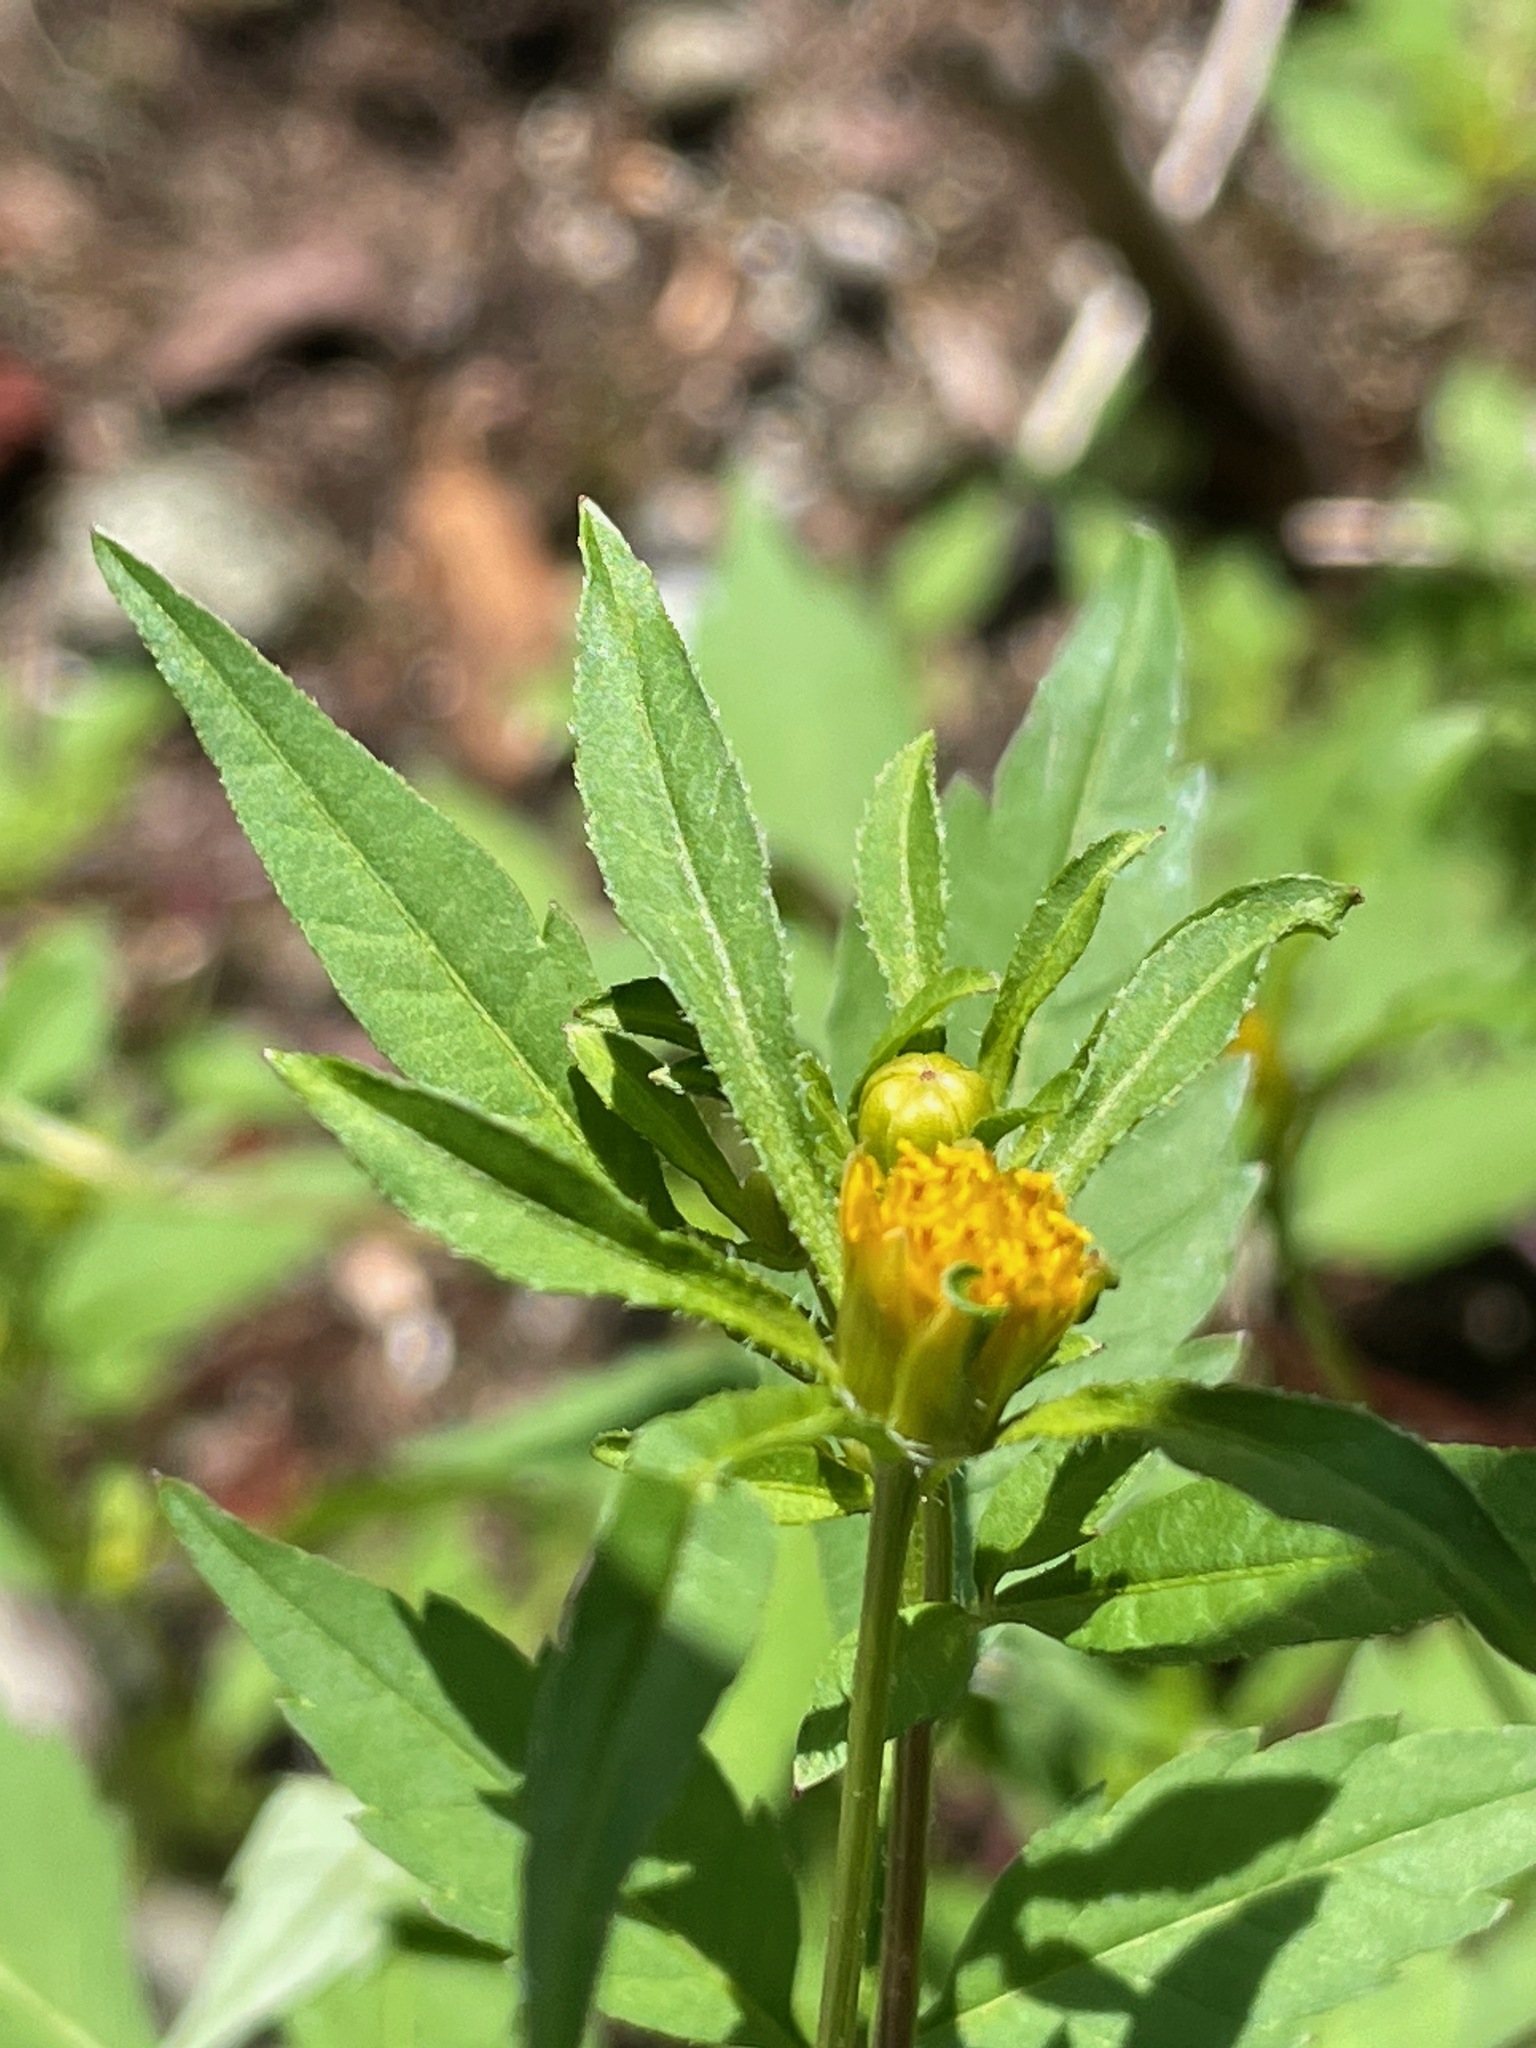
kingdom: Plantae
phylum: Tracheophyta
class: Magnoliopsida
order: Asterales
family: Asteraceae
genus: Bidens
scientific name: Bidens frondosa
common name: Beggarticks
